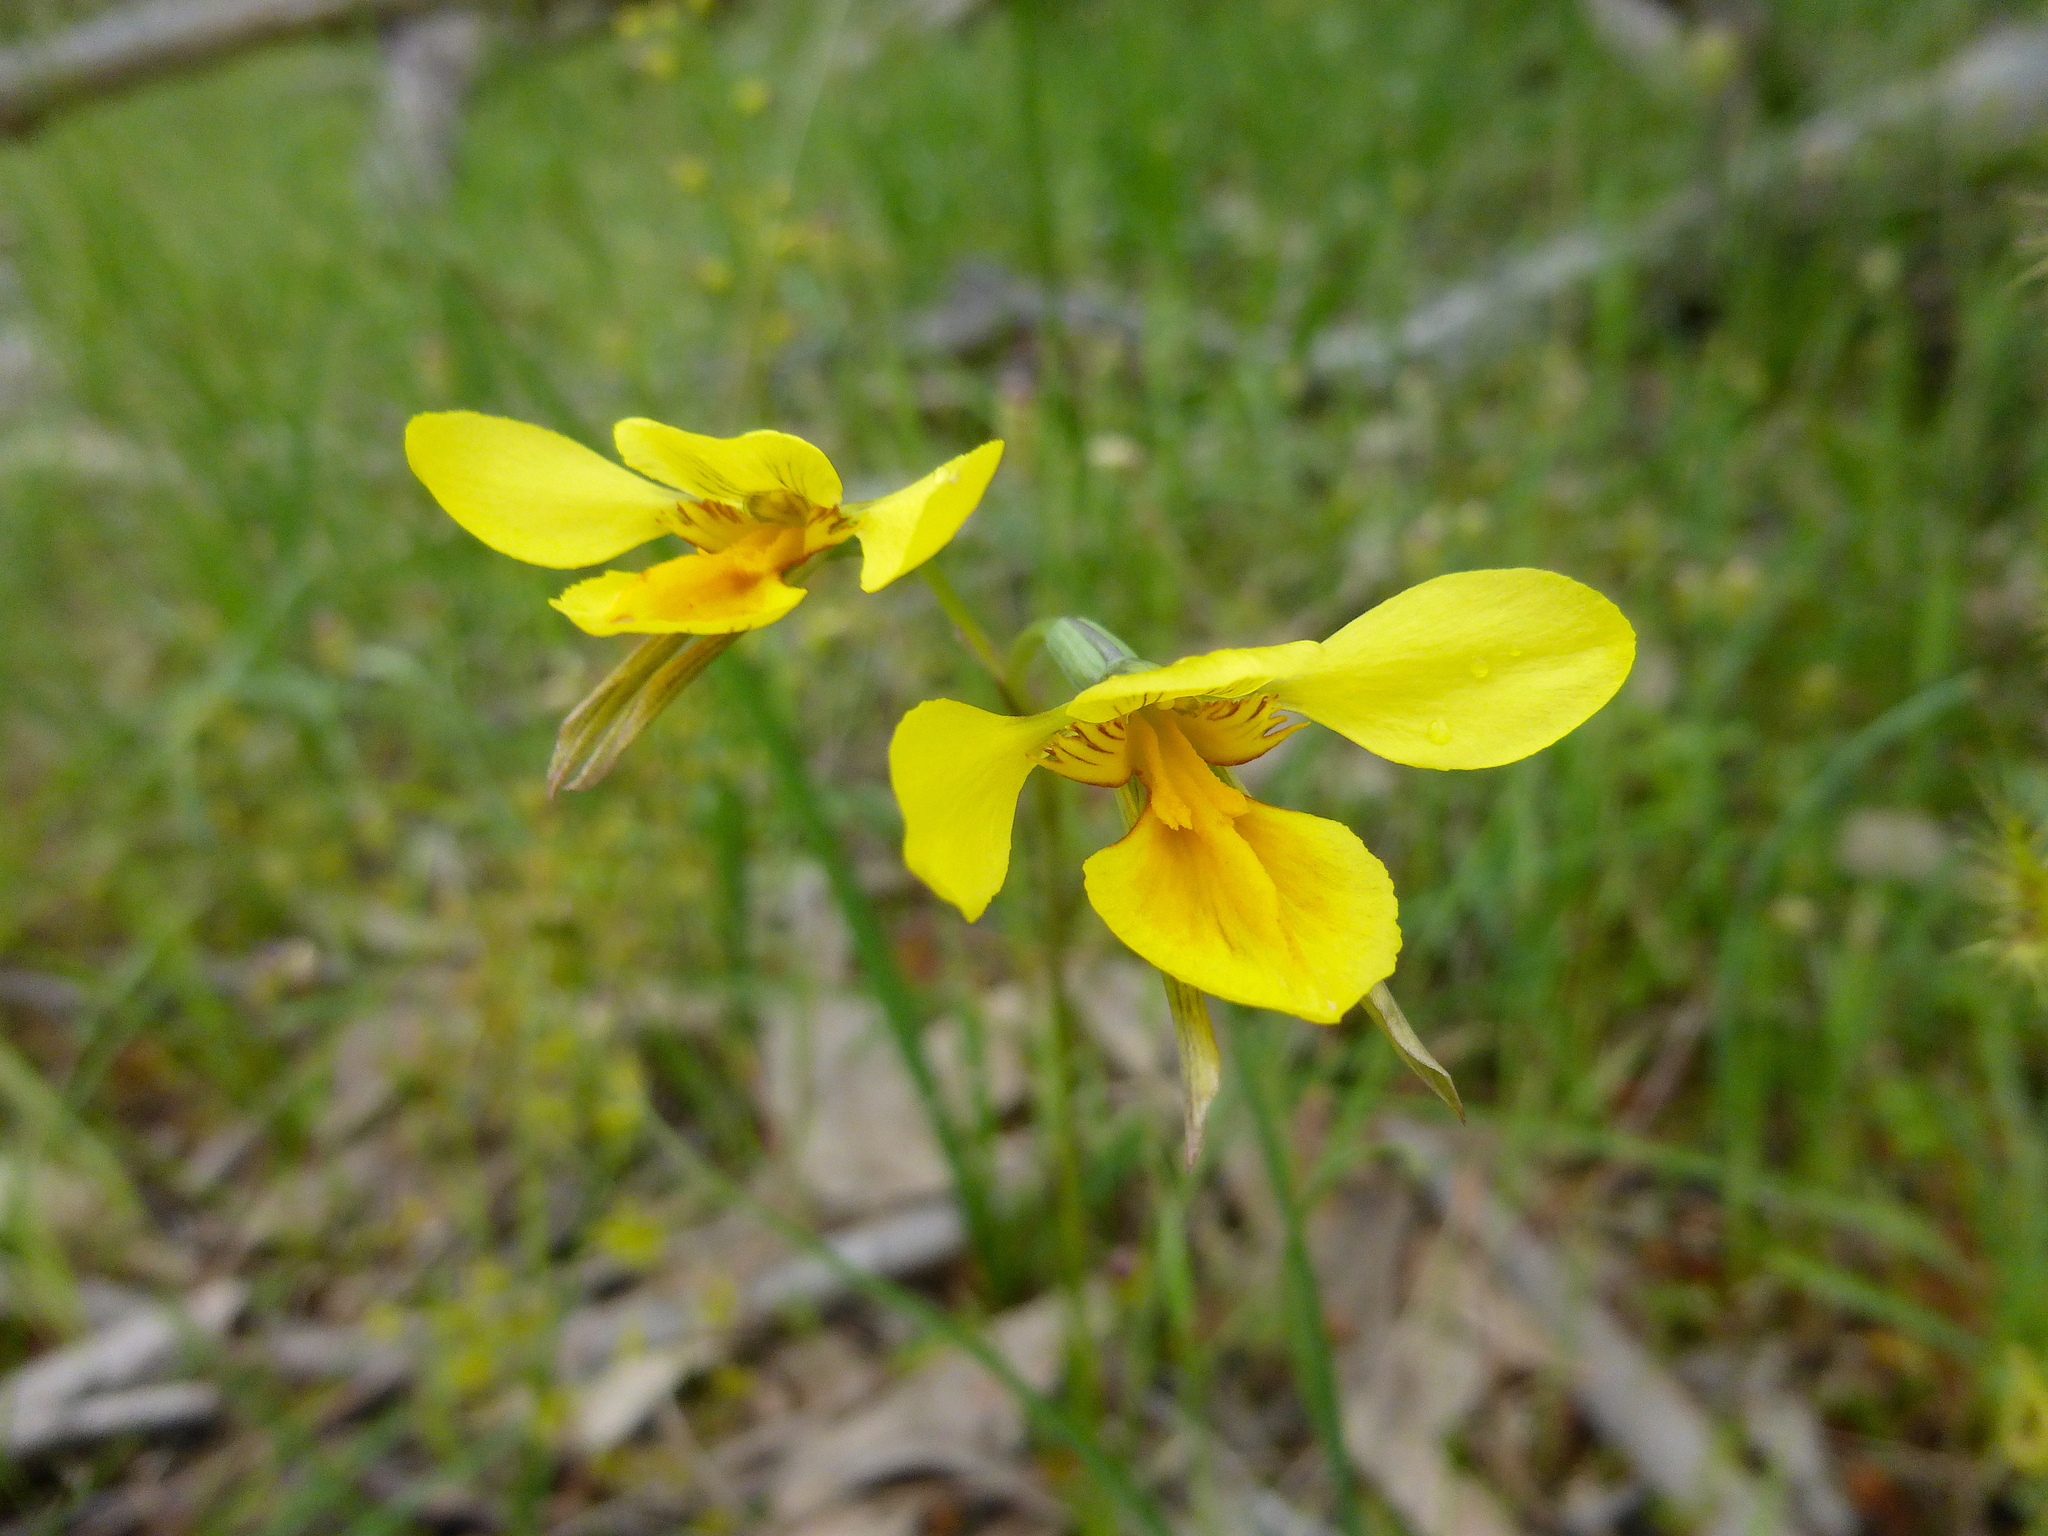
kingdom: Plantae
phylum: Tracheophyta
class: Liliopsida
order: Asparagales
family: Orchidaceae
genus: Diuris
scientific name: Diuris behrii
